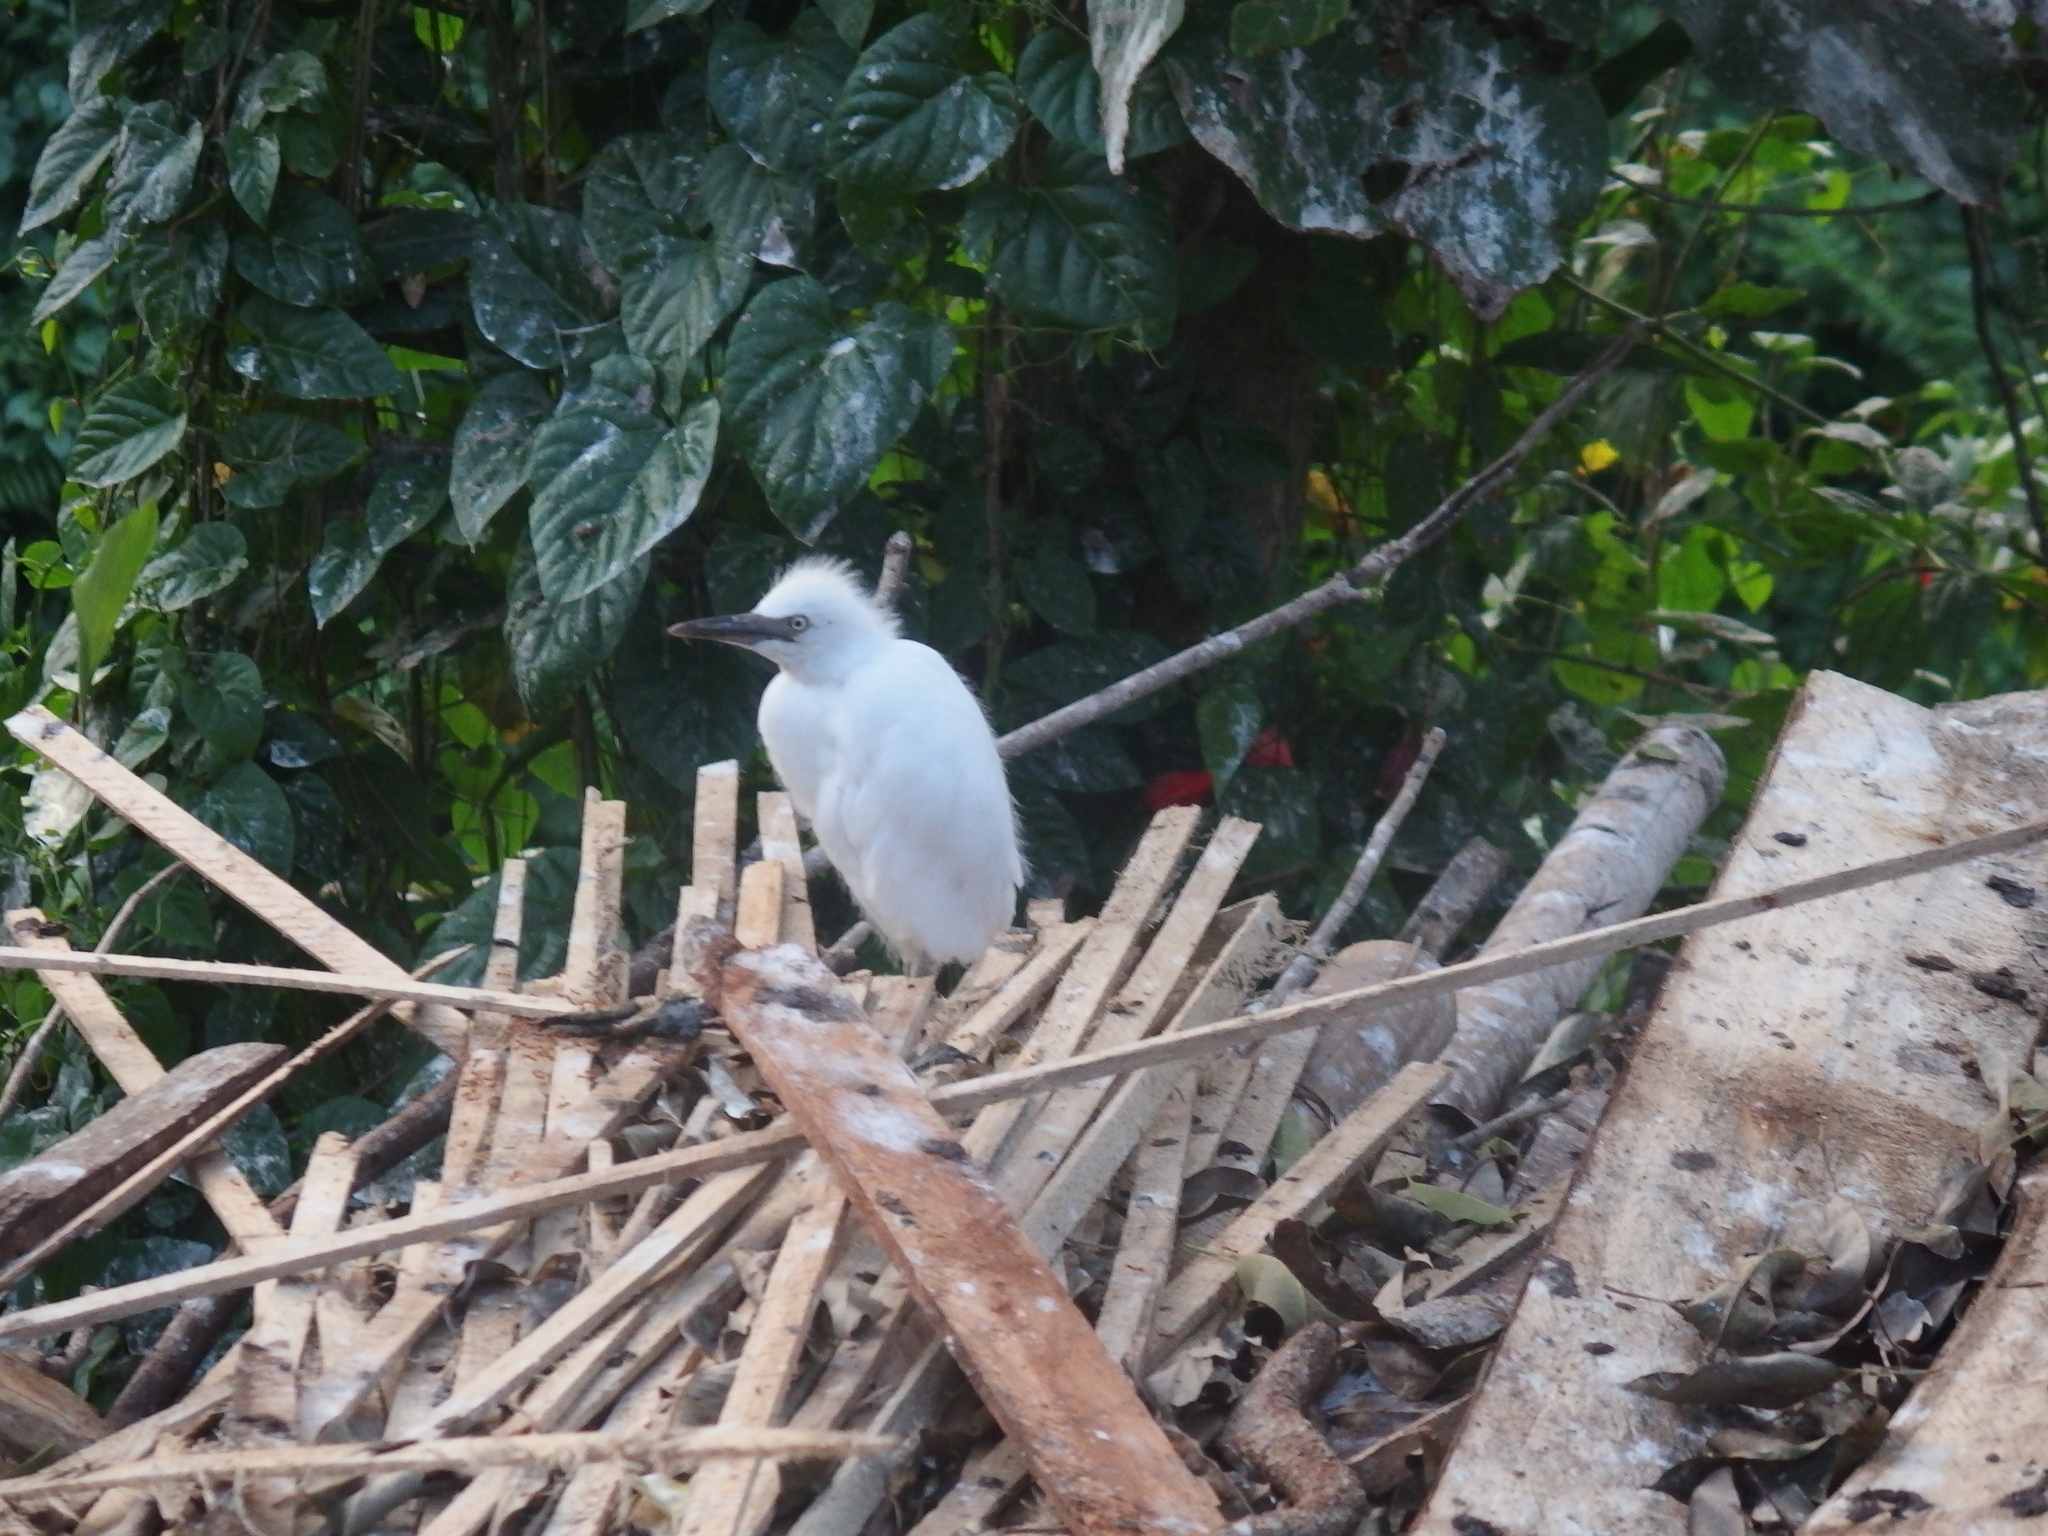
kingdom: Animalia
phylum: Chordata
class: Aves
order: Pelecaniformes
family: Ardeidae
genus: Bubulcus
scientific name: Bubulcus coromandus
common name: Eastern cattle egret
